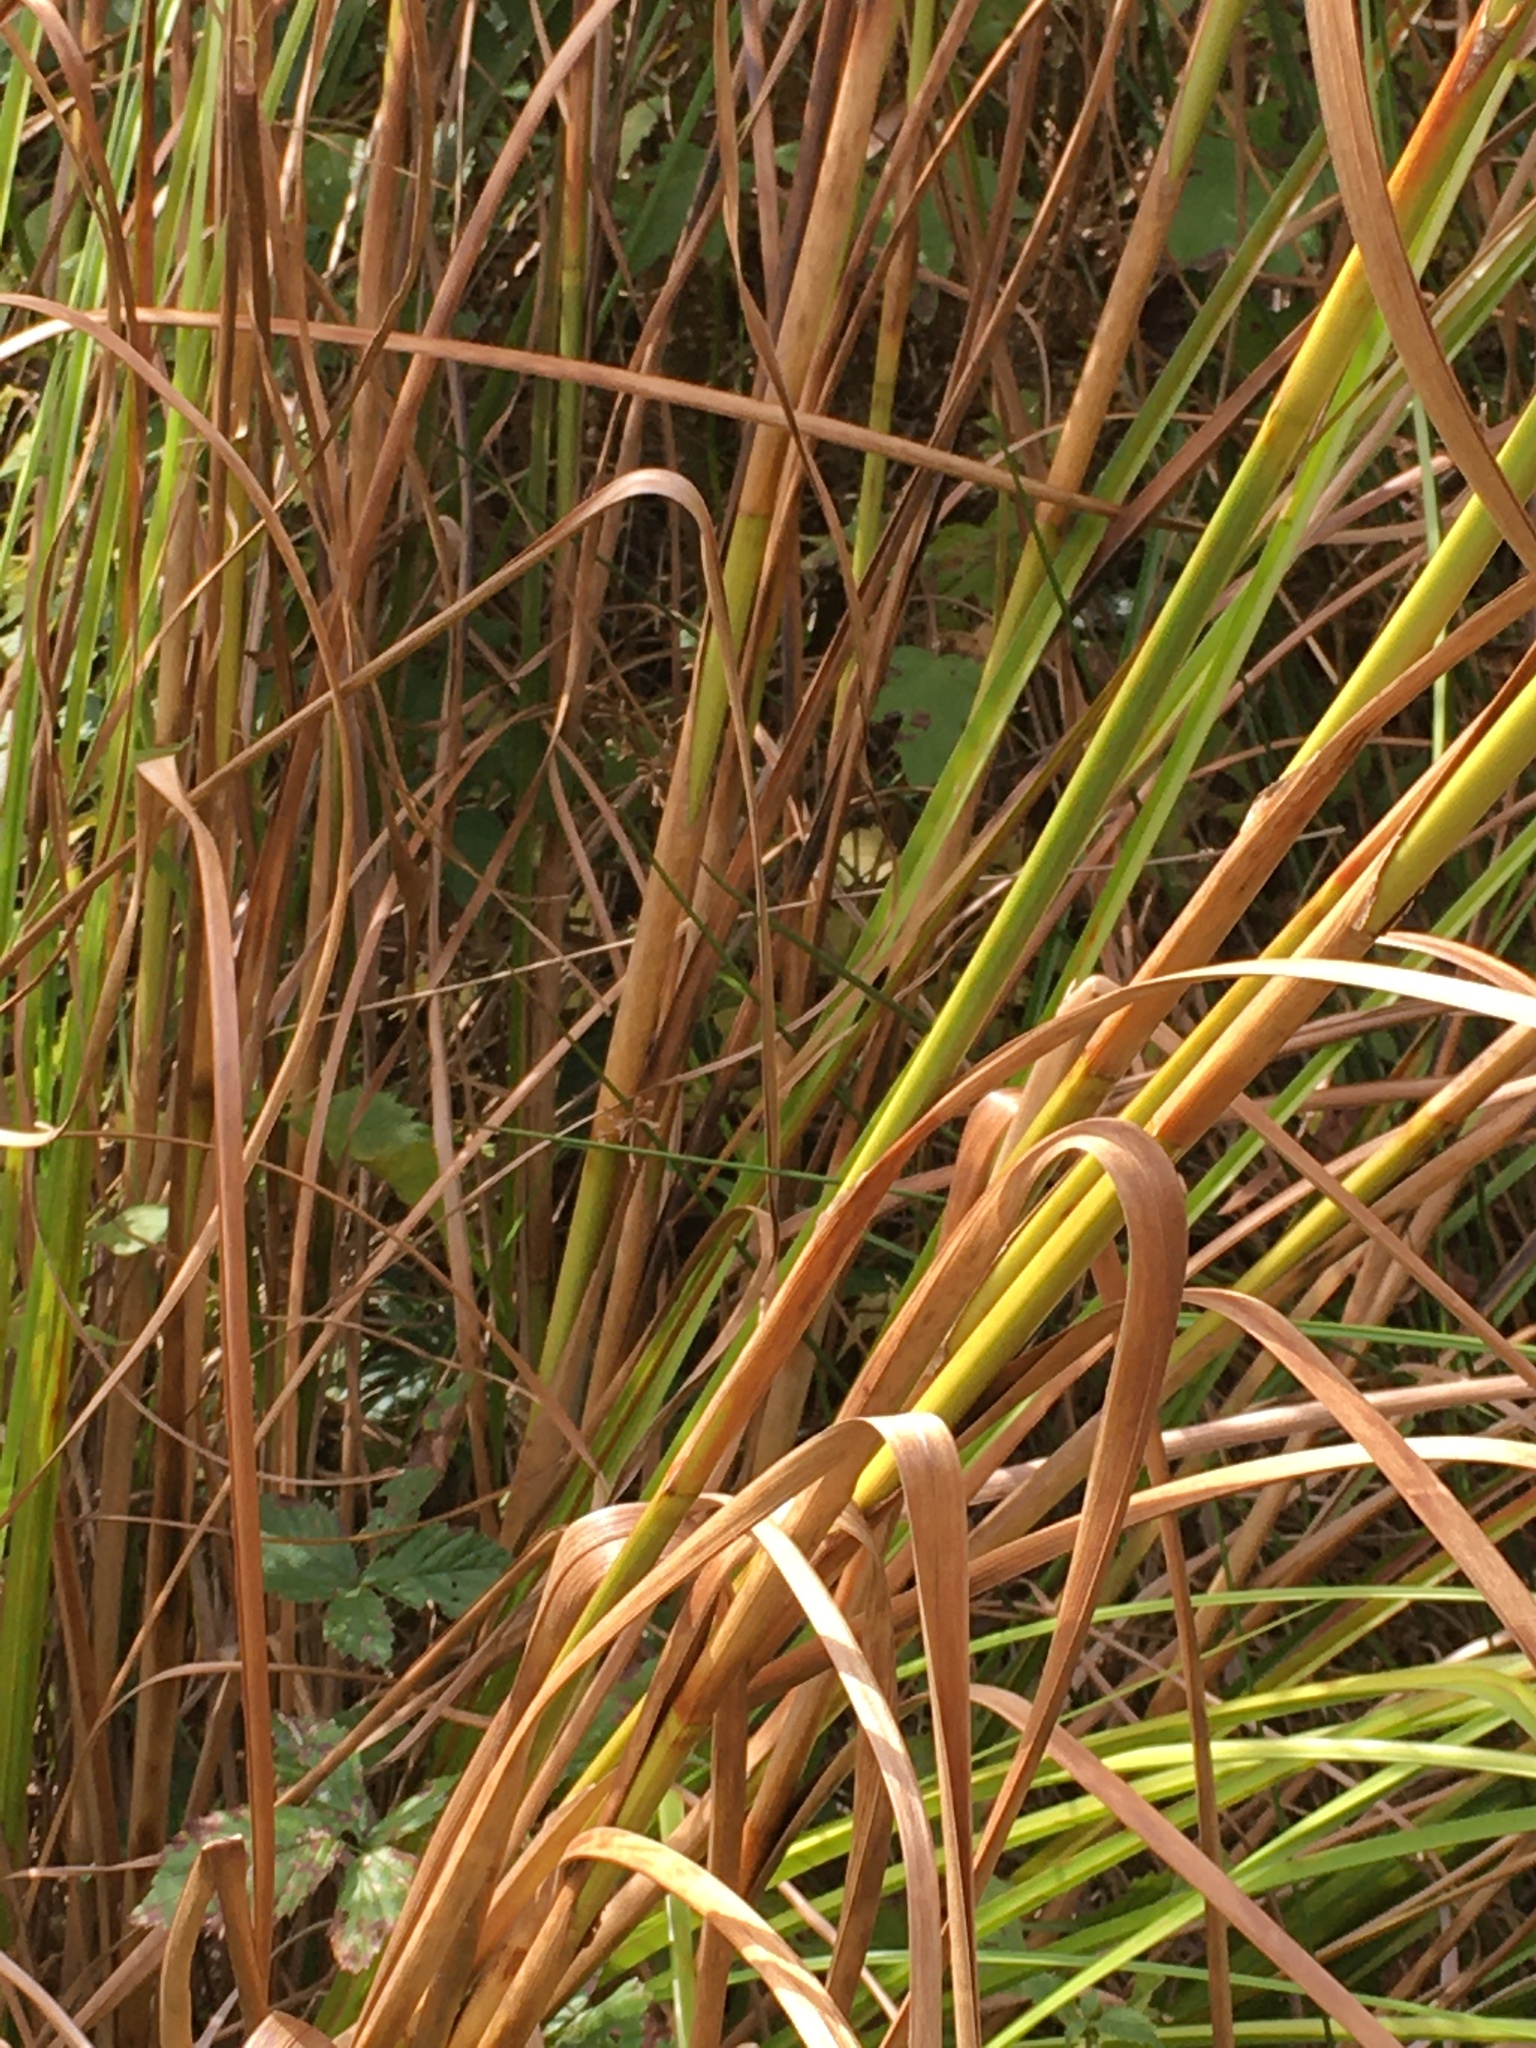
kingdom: Plantae
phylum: Tracheophyta
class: Liliopsida
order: Poales
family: Cyperaceae
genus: Scirpus
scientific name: Scirpus cyperinus
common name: Black-sheathed bulrush
